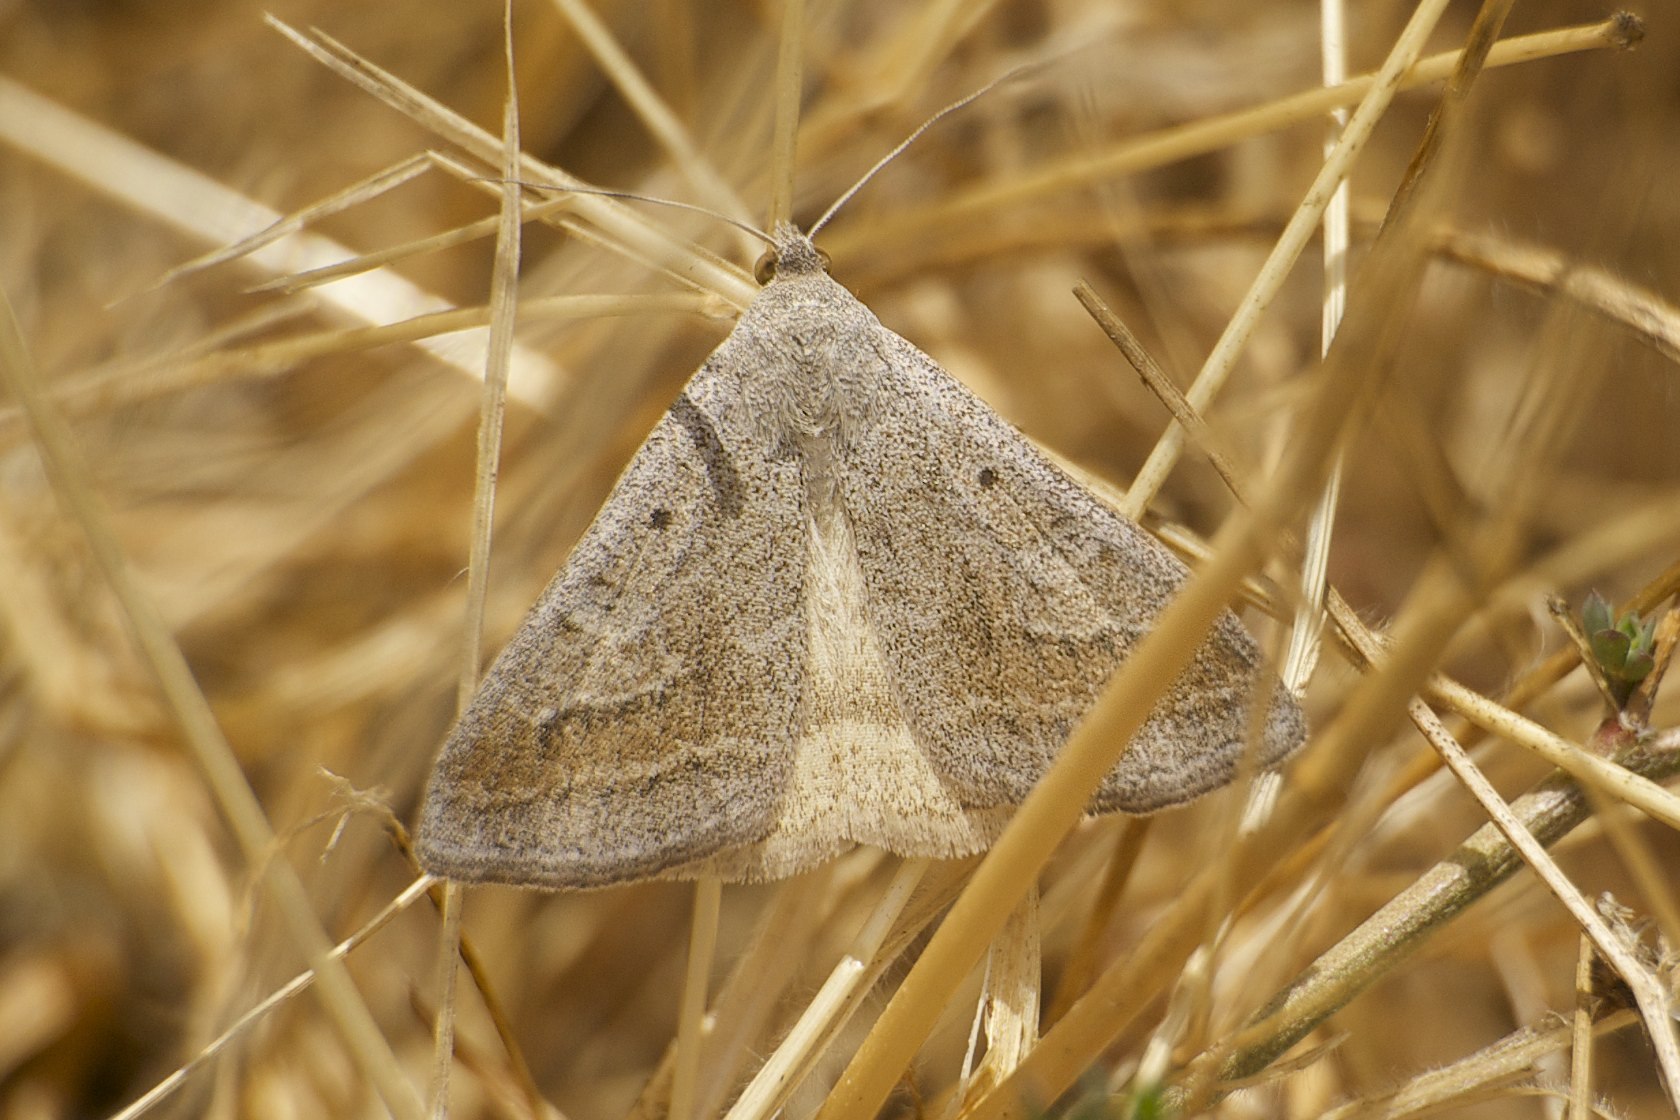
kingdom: Animalia
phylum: Arthropoda
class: Insecta
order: Lepidoptera
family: Erebidae
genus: Caenurgia
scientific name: Caenurgia togataria
